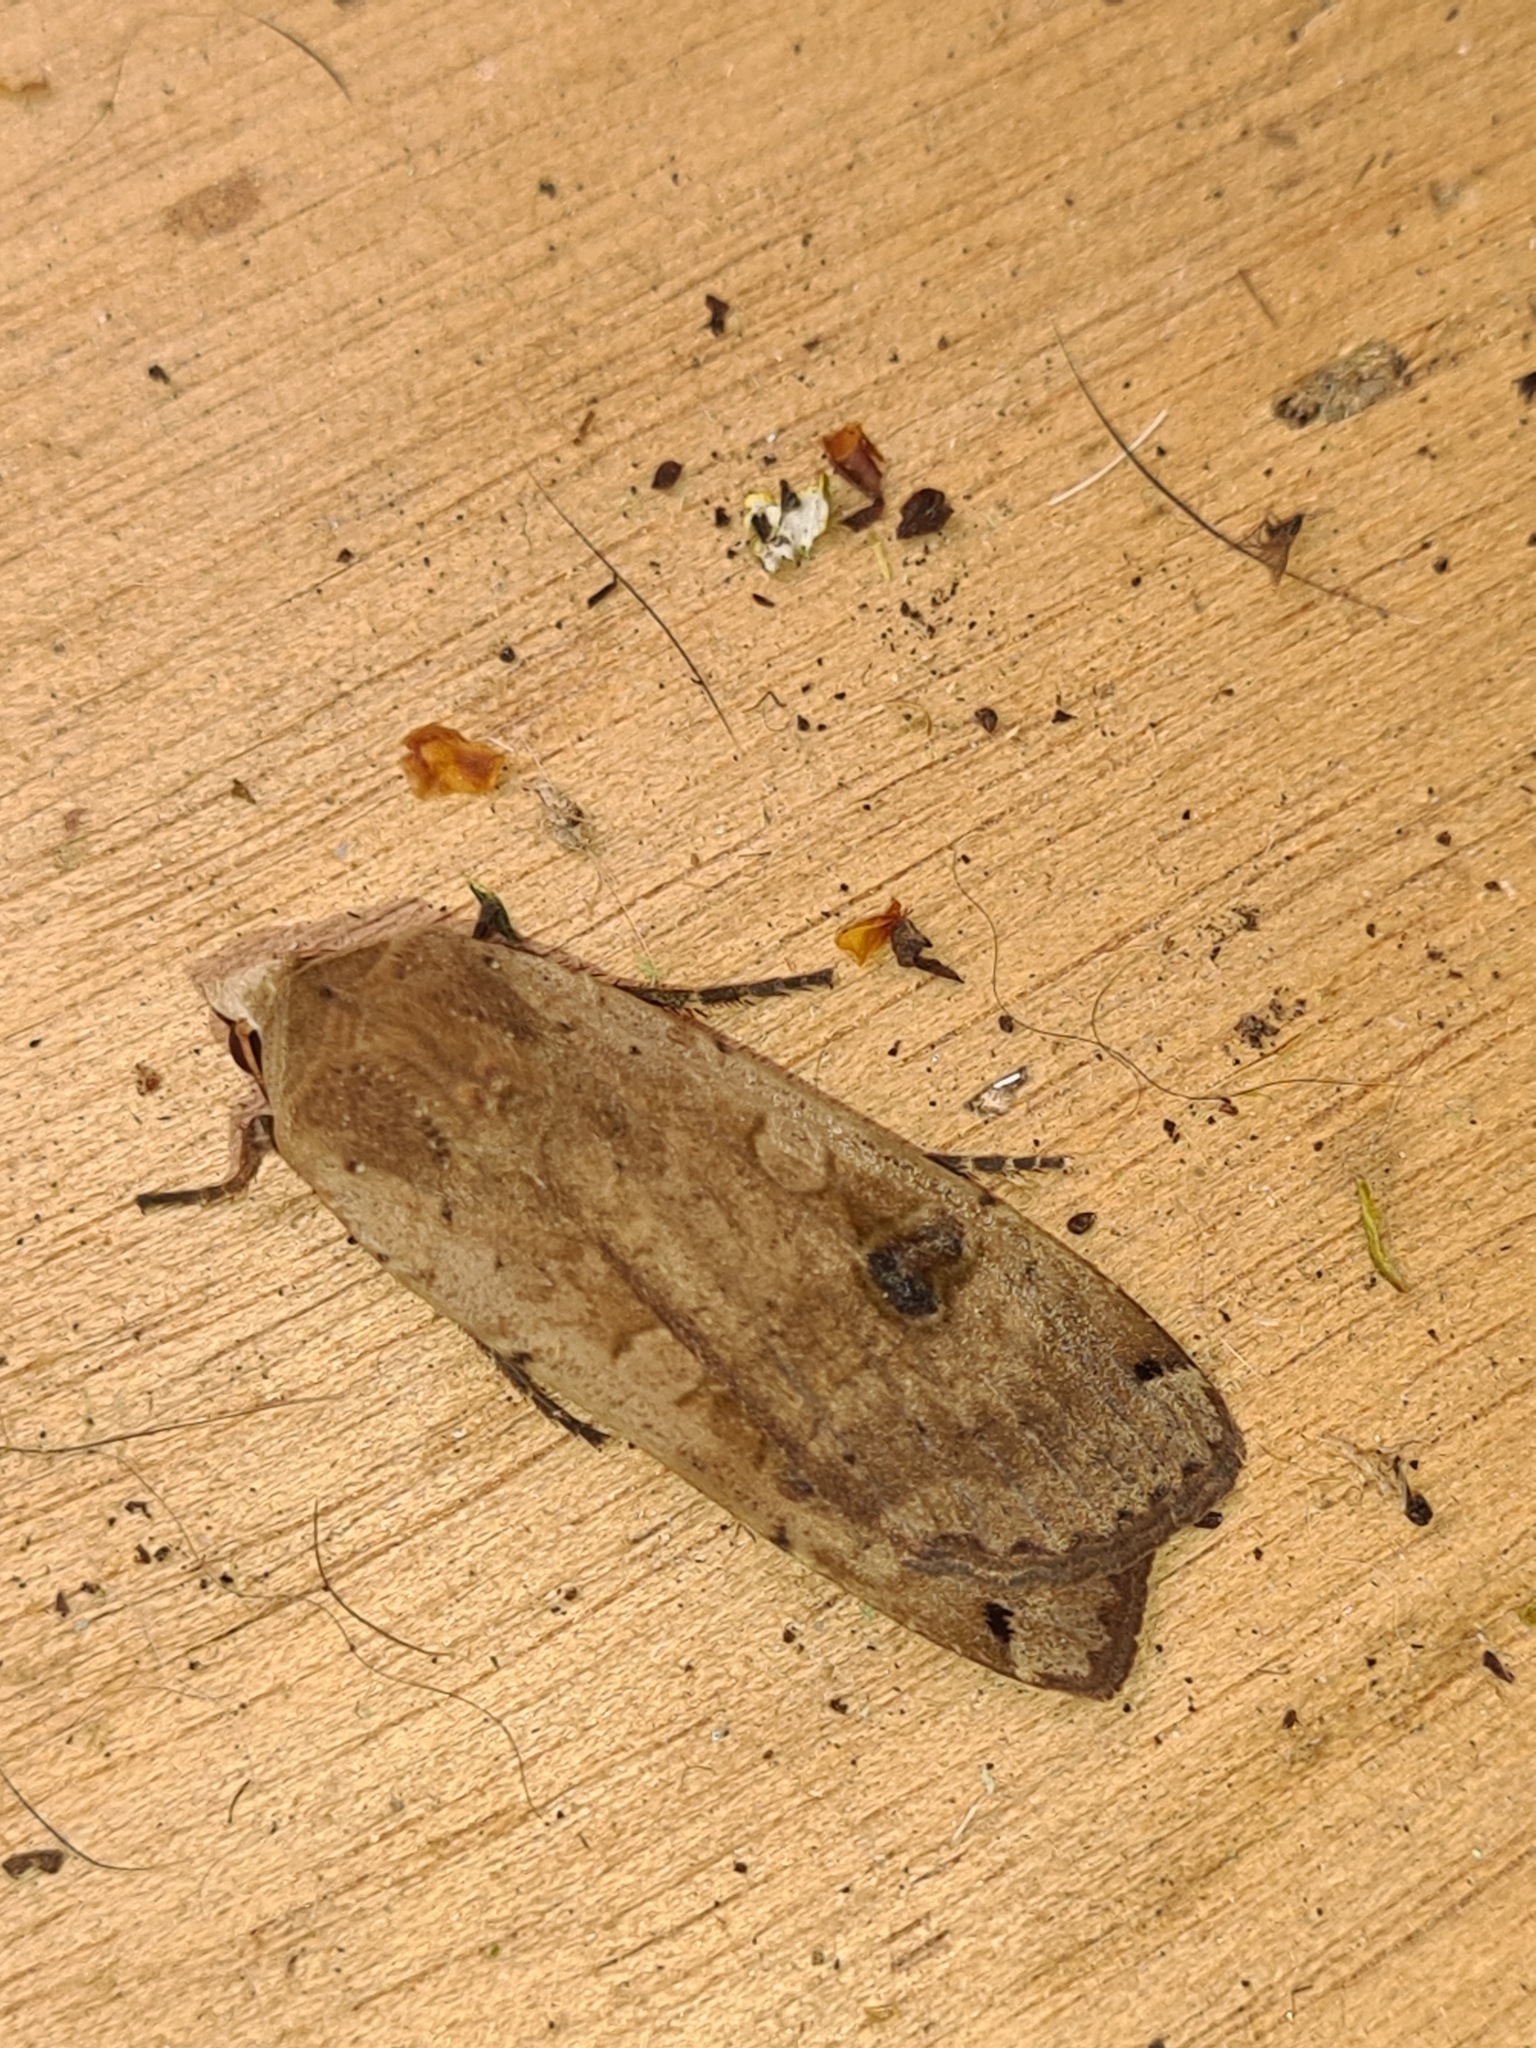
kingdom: Animalia
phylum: Arthropoda
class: Insecta
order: Lepidoptera
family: Noctuidae
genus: Noctua
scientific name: Noctua pronuba
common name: Large yellow underwing
